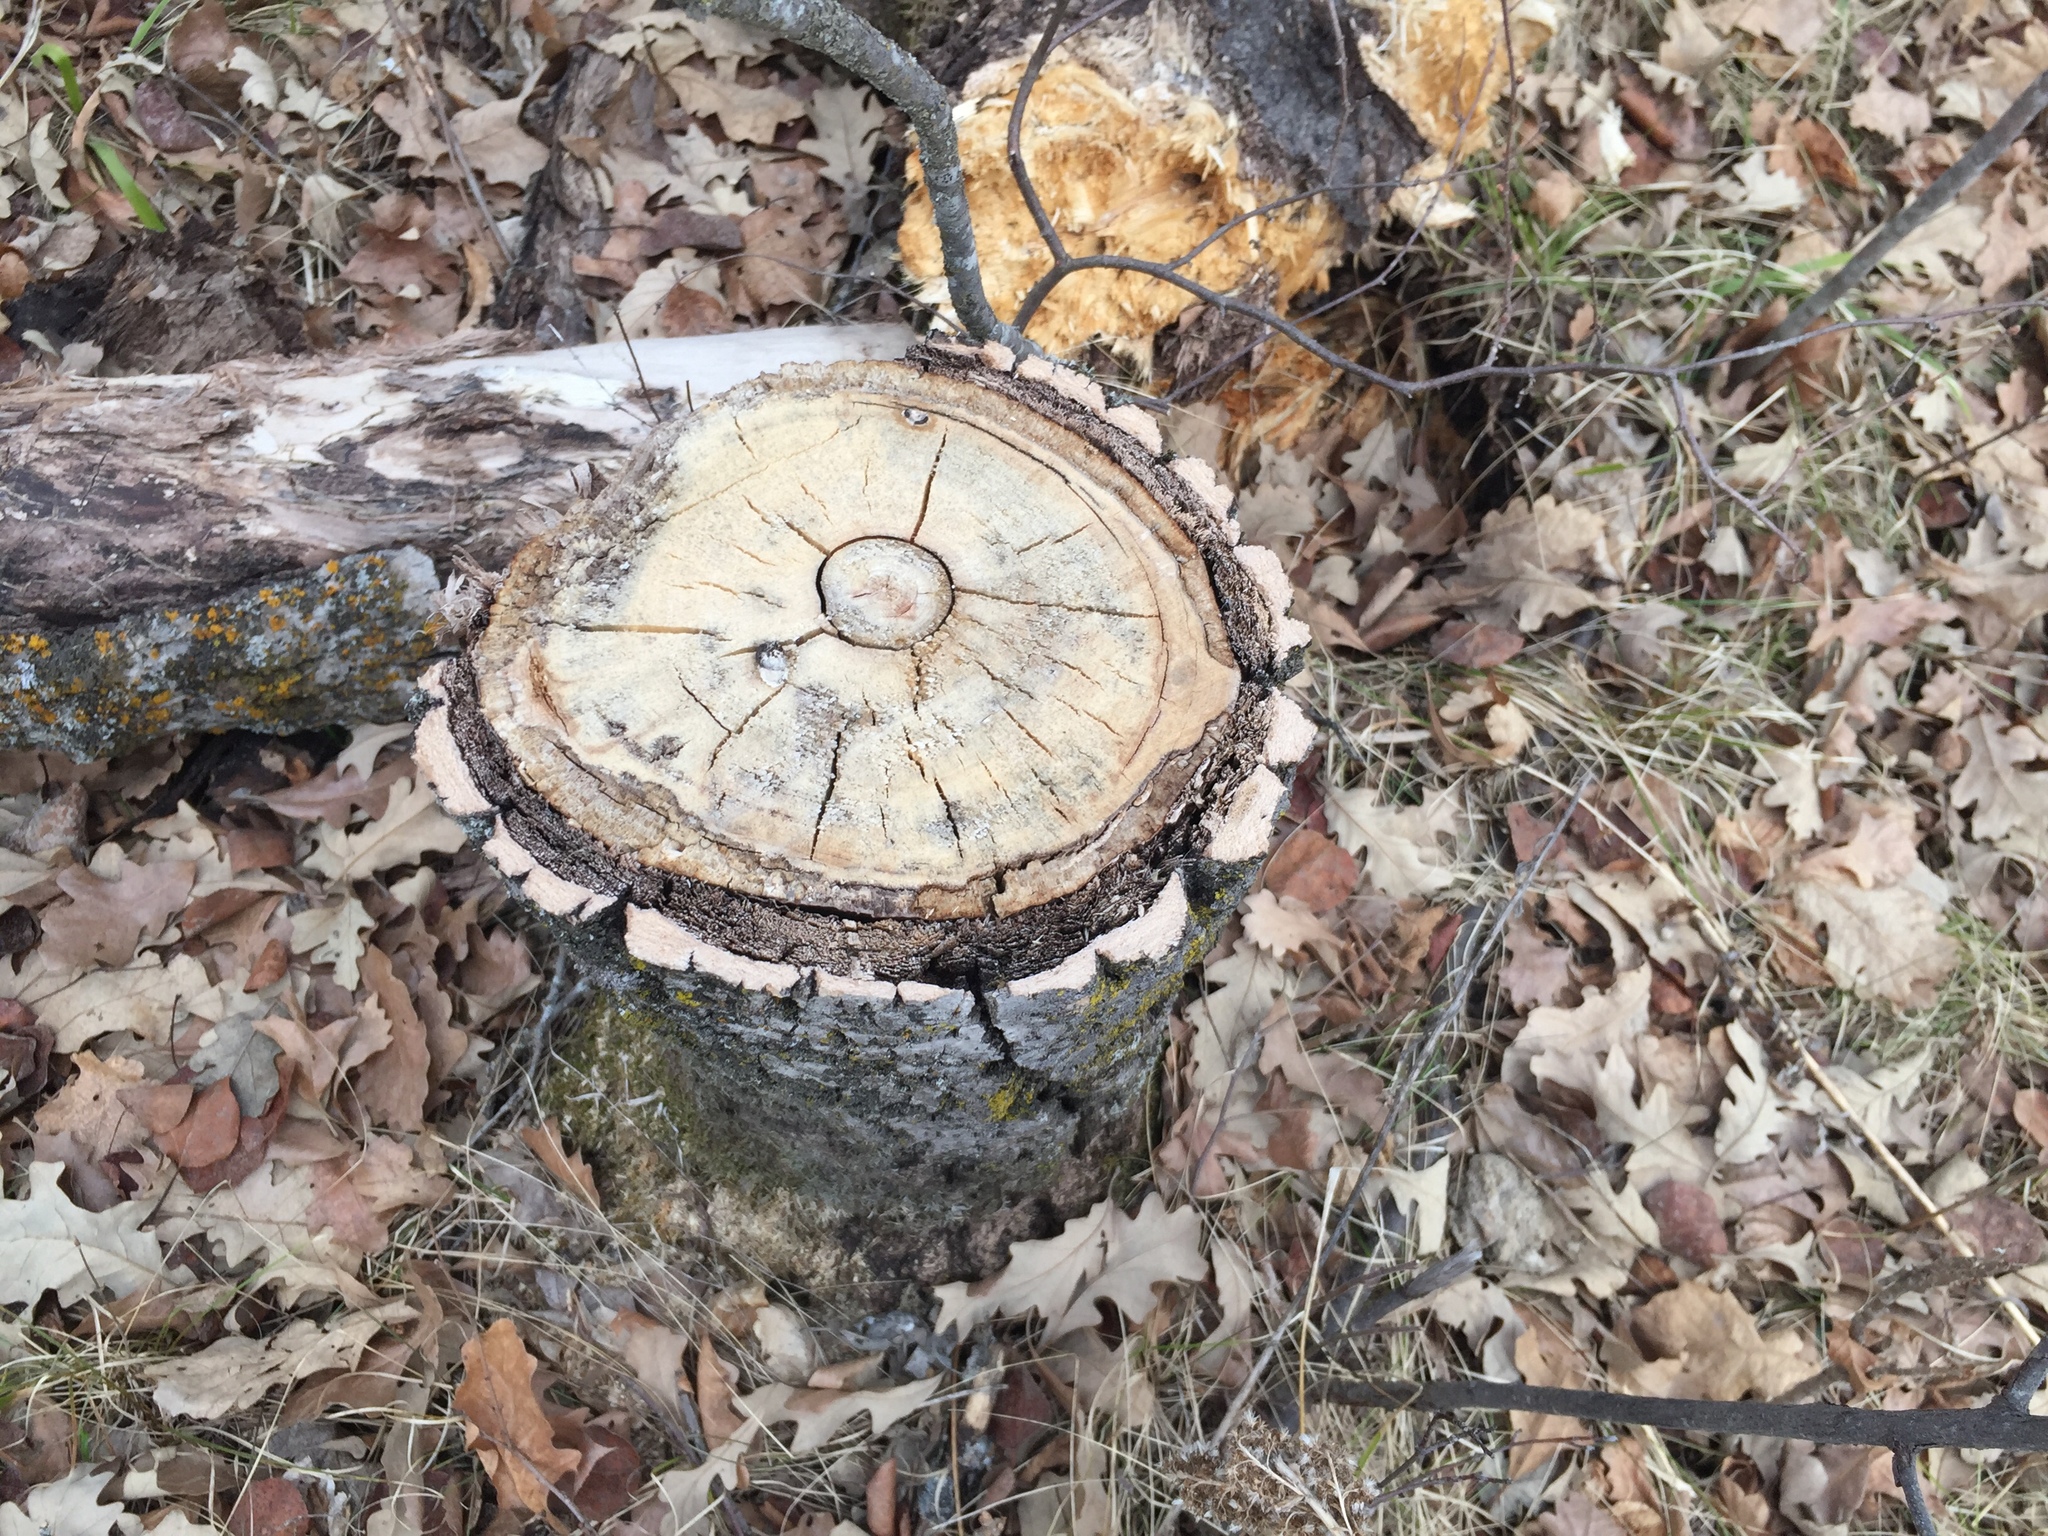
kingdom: Plantae
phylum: Tracheophyta
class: Magnoliopsida
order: Malpighiales
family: Salicaceae
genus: Populus
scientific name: Populus tremuloides
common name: Quaking aspen
